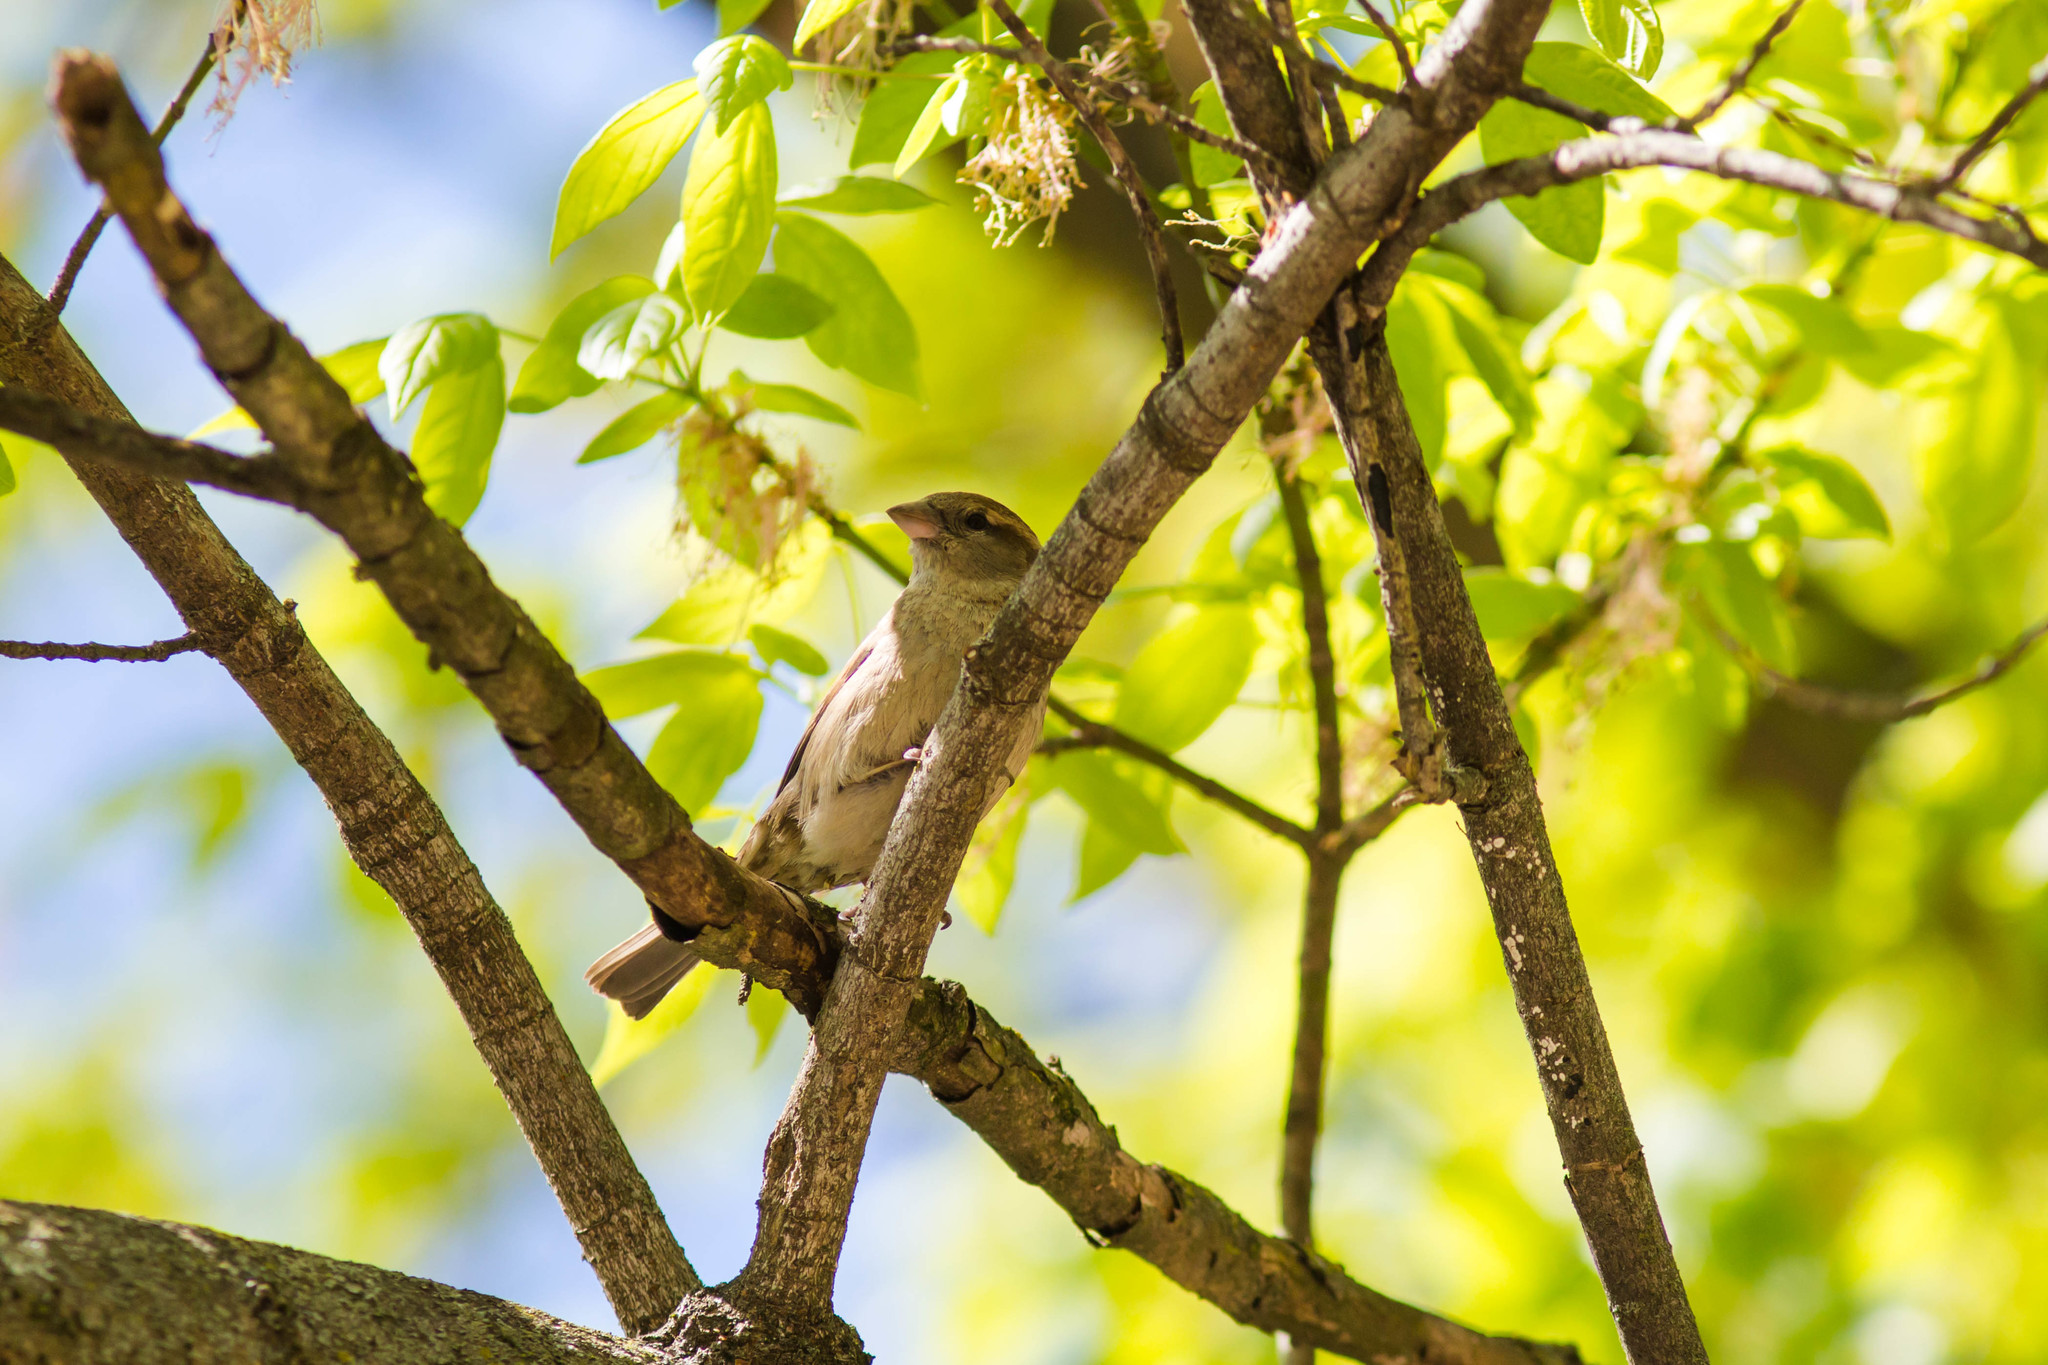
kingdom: Animalia
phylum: Chordata
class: Aves
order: Passeriformes
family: Passeridae
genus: Passer
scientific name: Passer domesticus
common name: House sparrow
